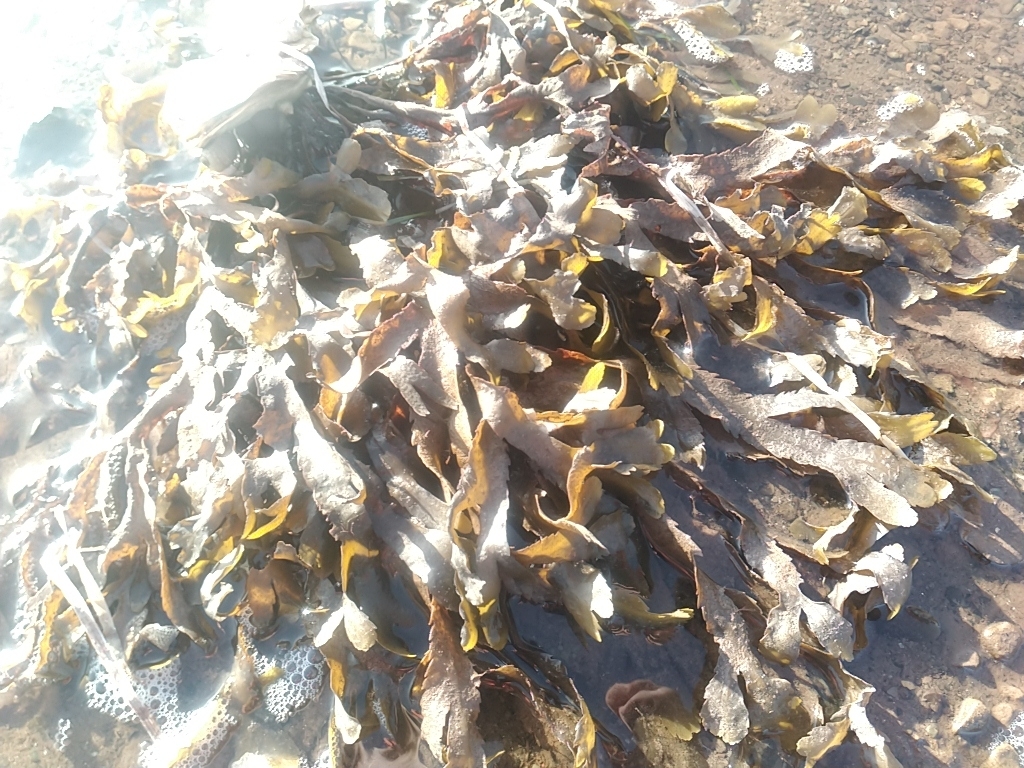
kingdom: Chromista
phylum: Ochrophyta
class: Phaeophyceae
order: Fucales
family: Fucaceae
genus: Fucus
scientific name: Fucus serratus
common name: Toothed wrack
